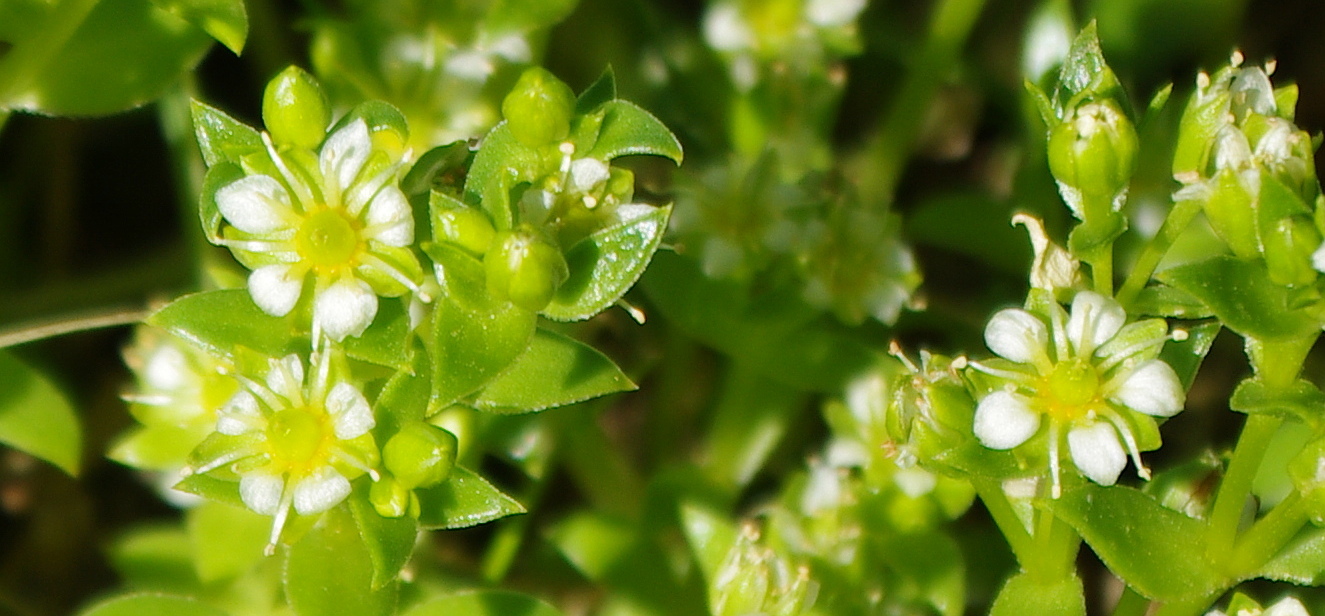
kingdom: Plantae
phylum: Tracheophyta
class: Magnoliopsida
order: Caryophyllales
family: Caryophyllaceae
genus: Honckenya
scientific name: Honckenya peploides
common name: Sea sandwort
